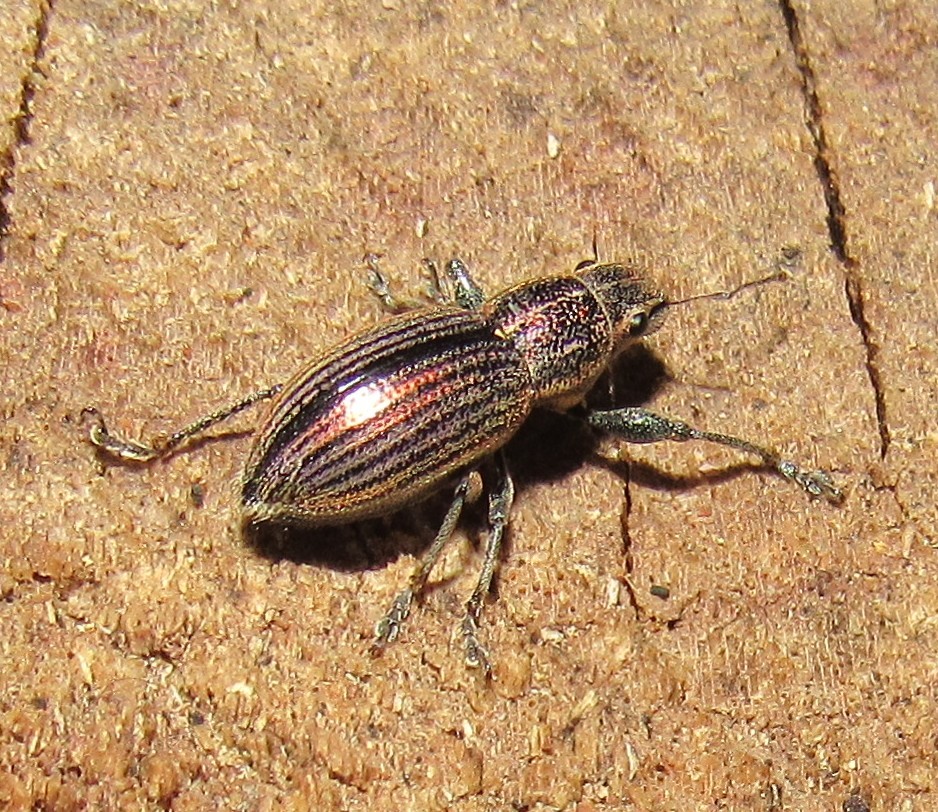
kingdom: Animalia
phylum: Arthropoda
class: Insecta
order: Coleoptera
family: Curculionidae
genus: Naupactus
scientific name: Naupactus tremolerasi
